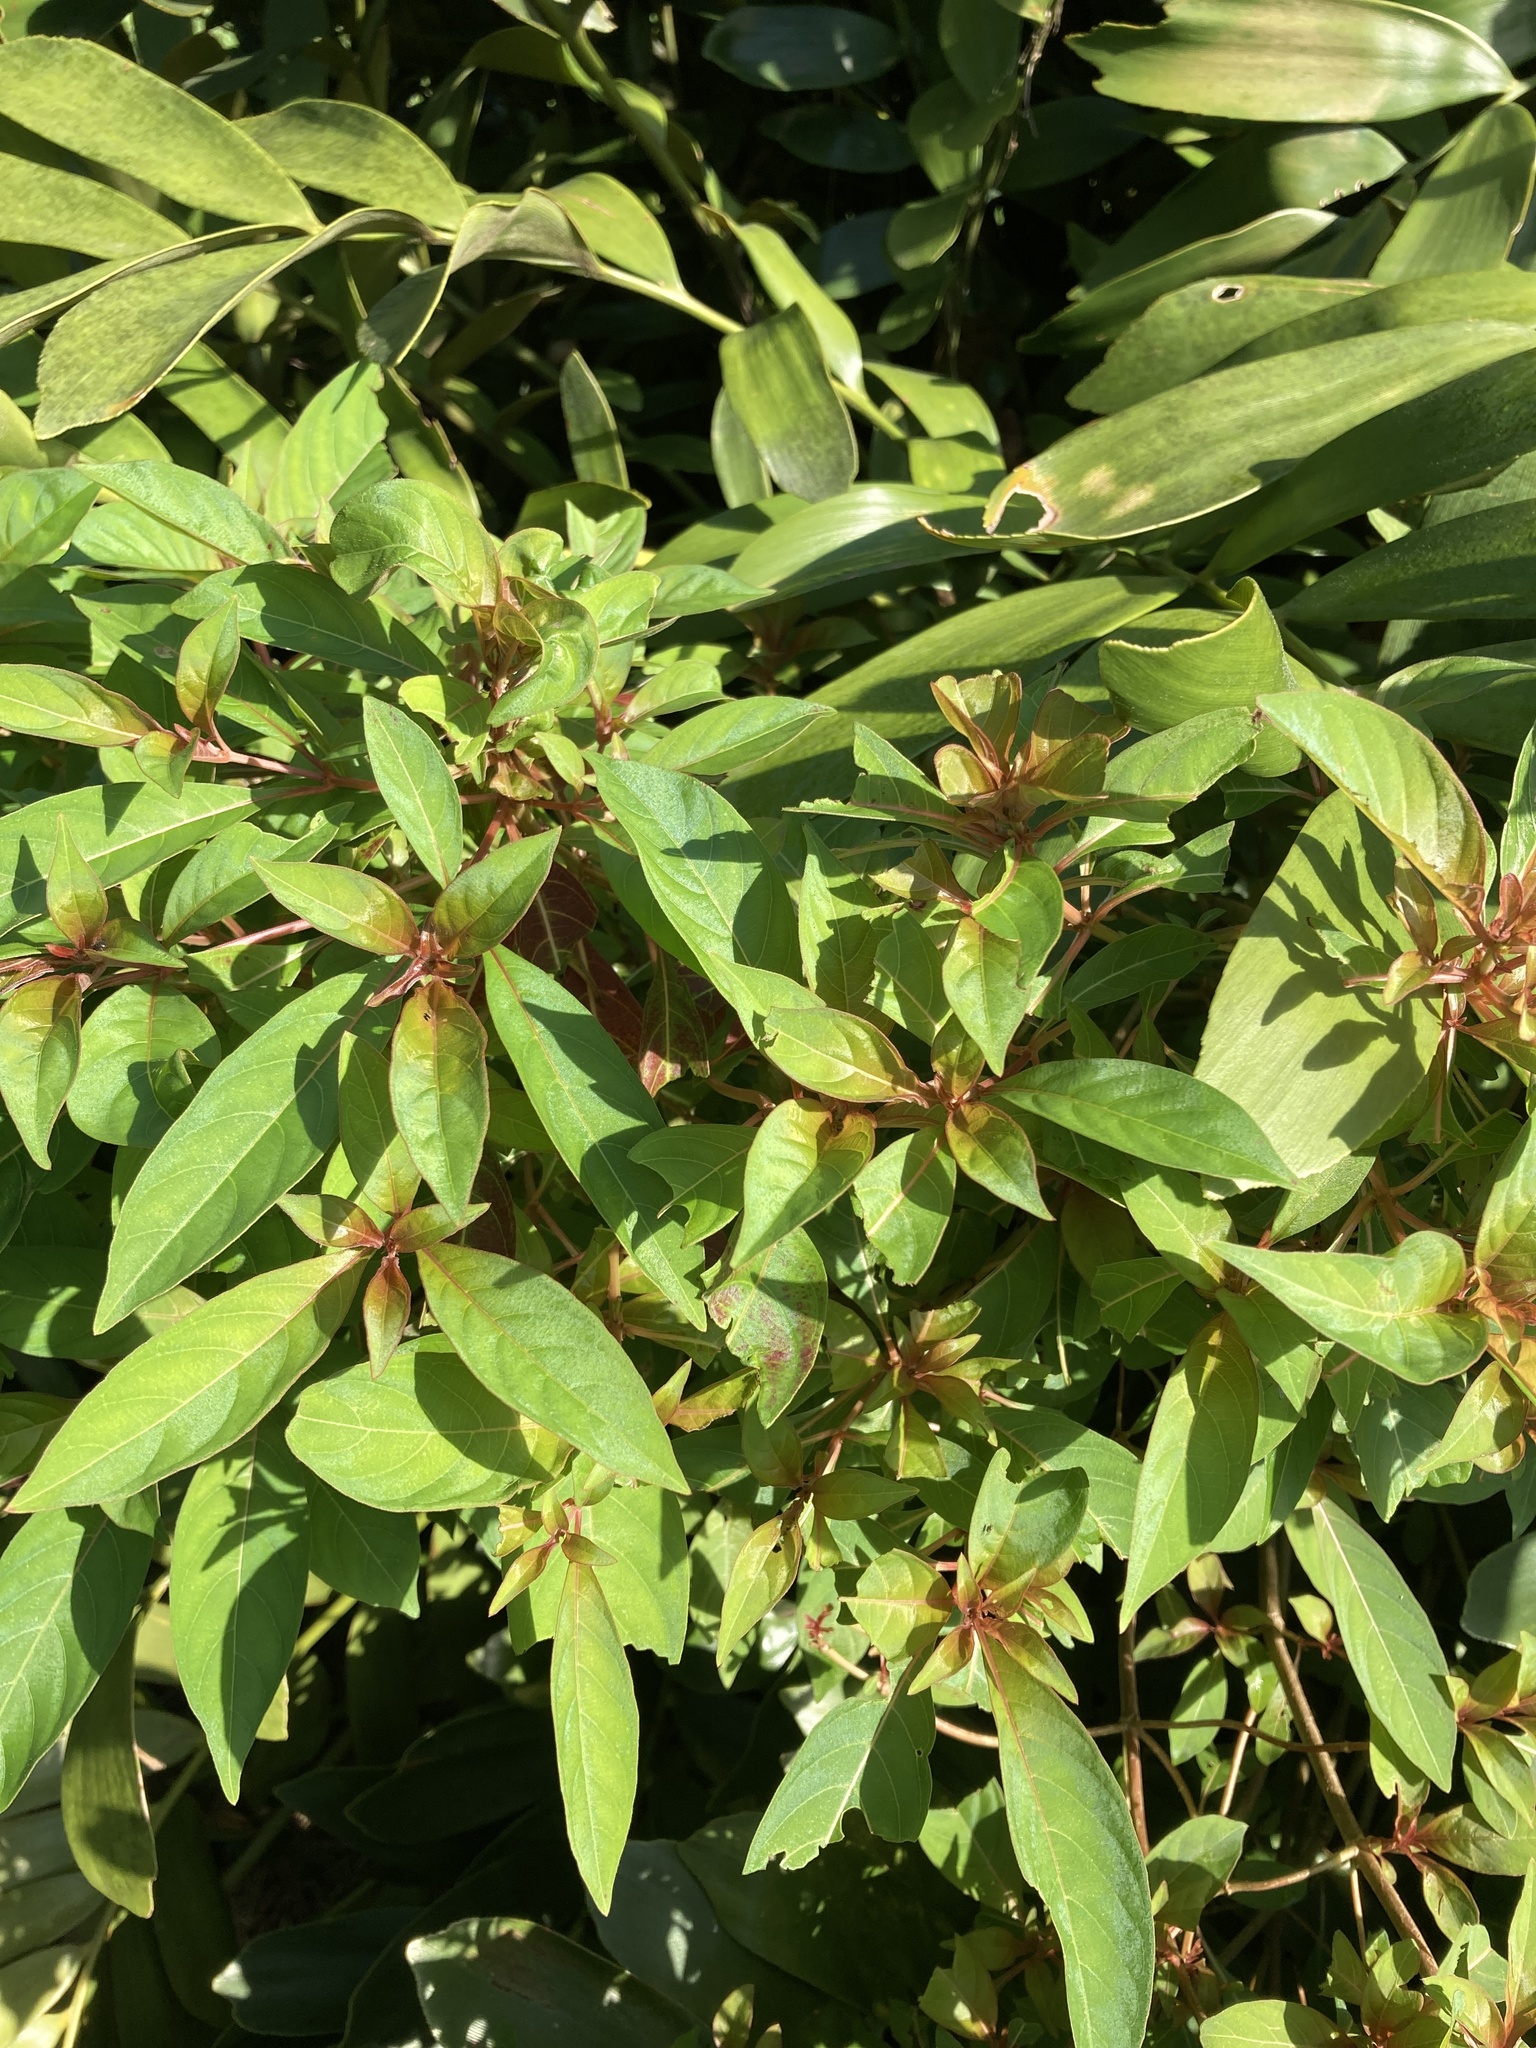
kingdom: Plantae
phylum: Tracheophyta
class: Magnoliopsida
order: Gentianales
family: Rubiaceae
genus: Hamelia
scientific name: Hamelia patens
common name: Redhead
